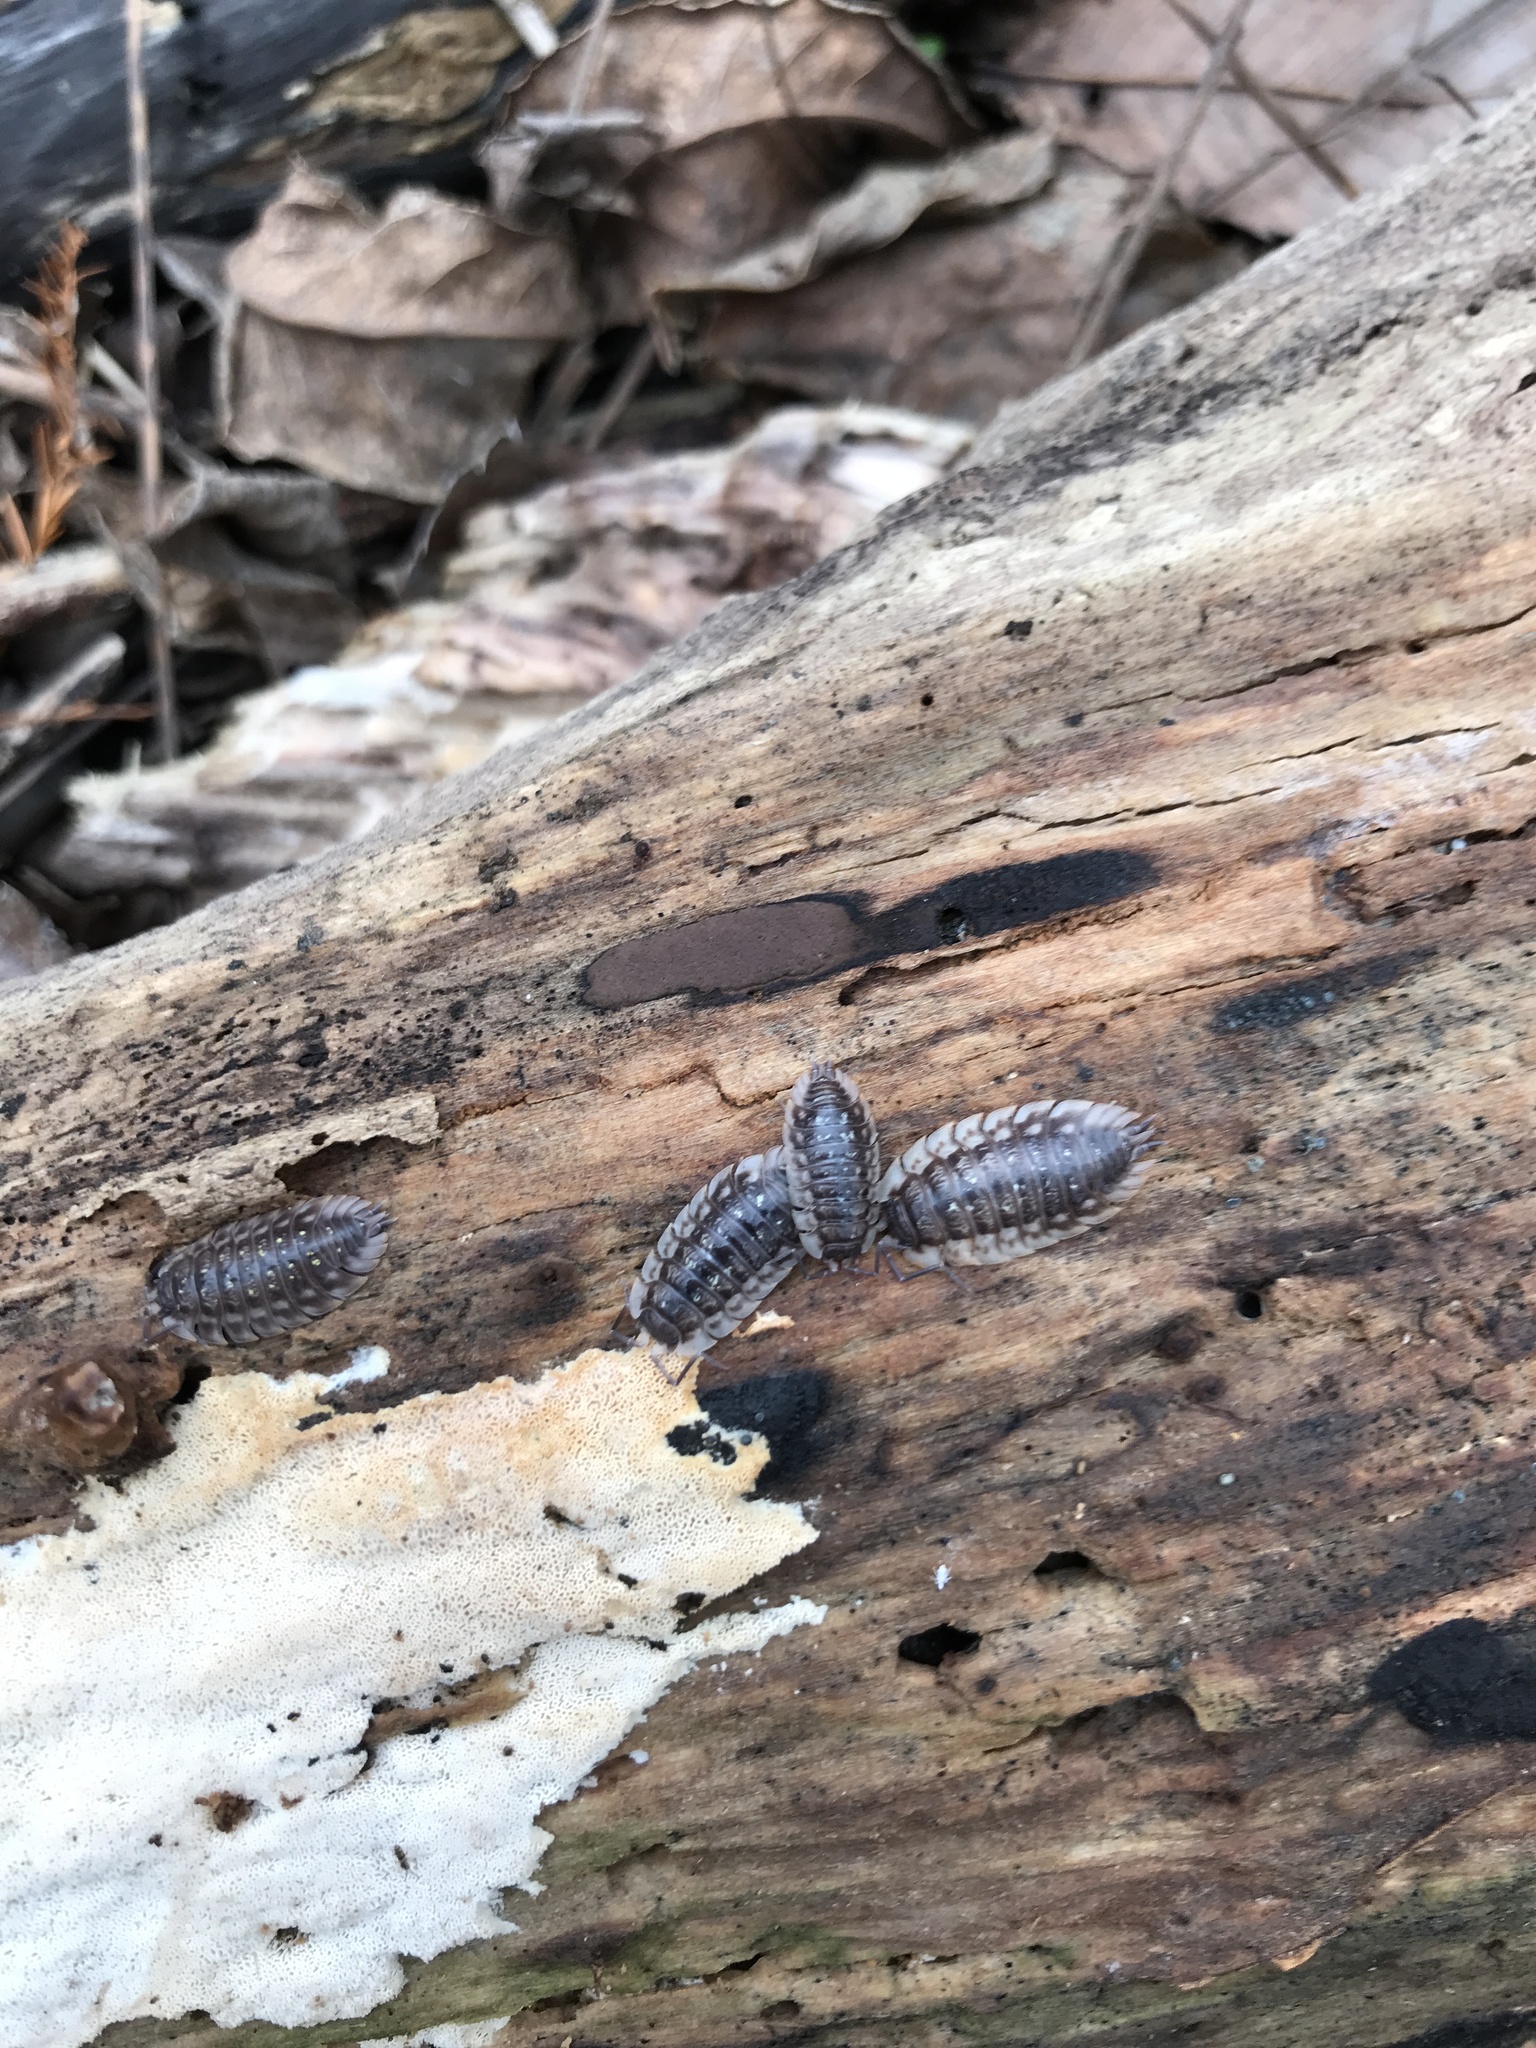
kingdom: Animalia
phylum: Arthropoda
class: Malacostraca
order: Isopoda
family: Oniscidae
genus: Oniscus
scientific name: Oniscus asellus
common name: Common shiny woodlouse
